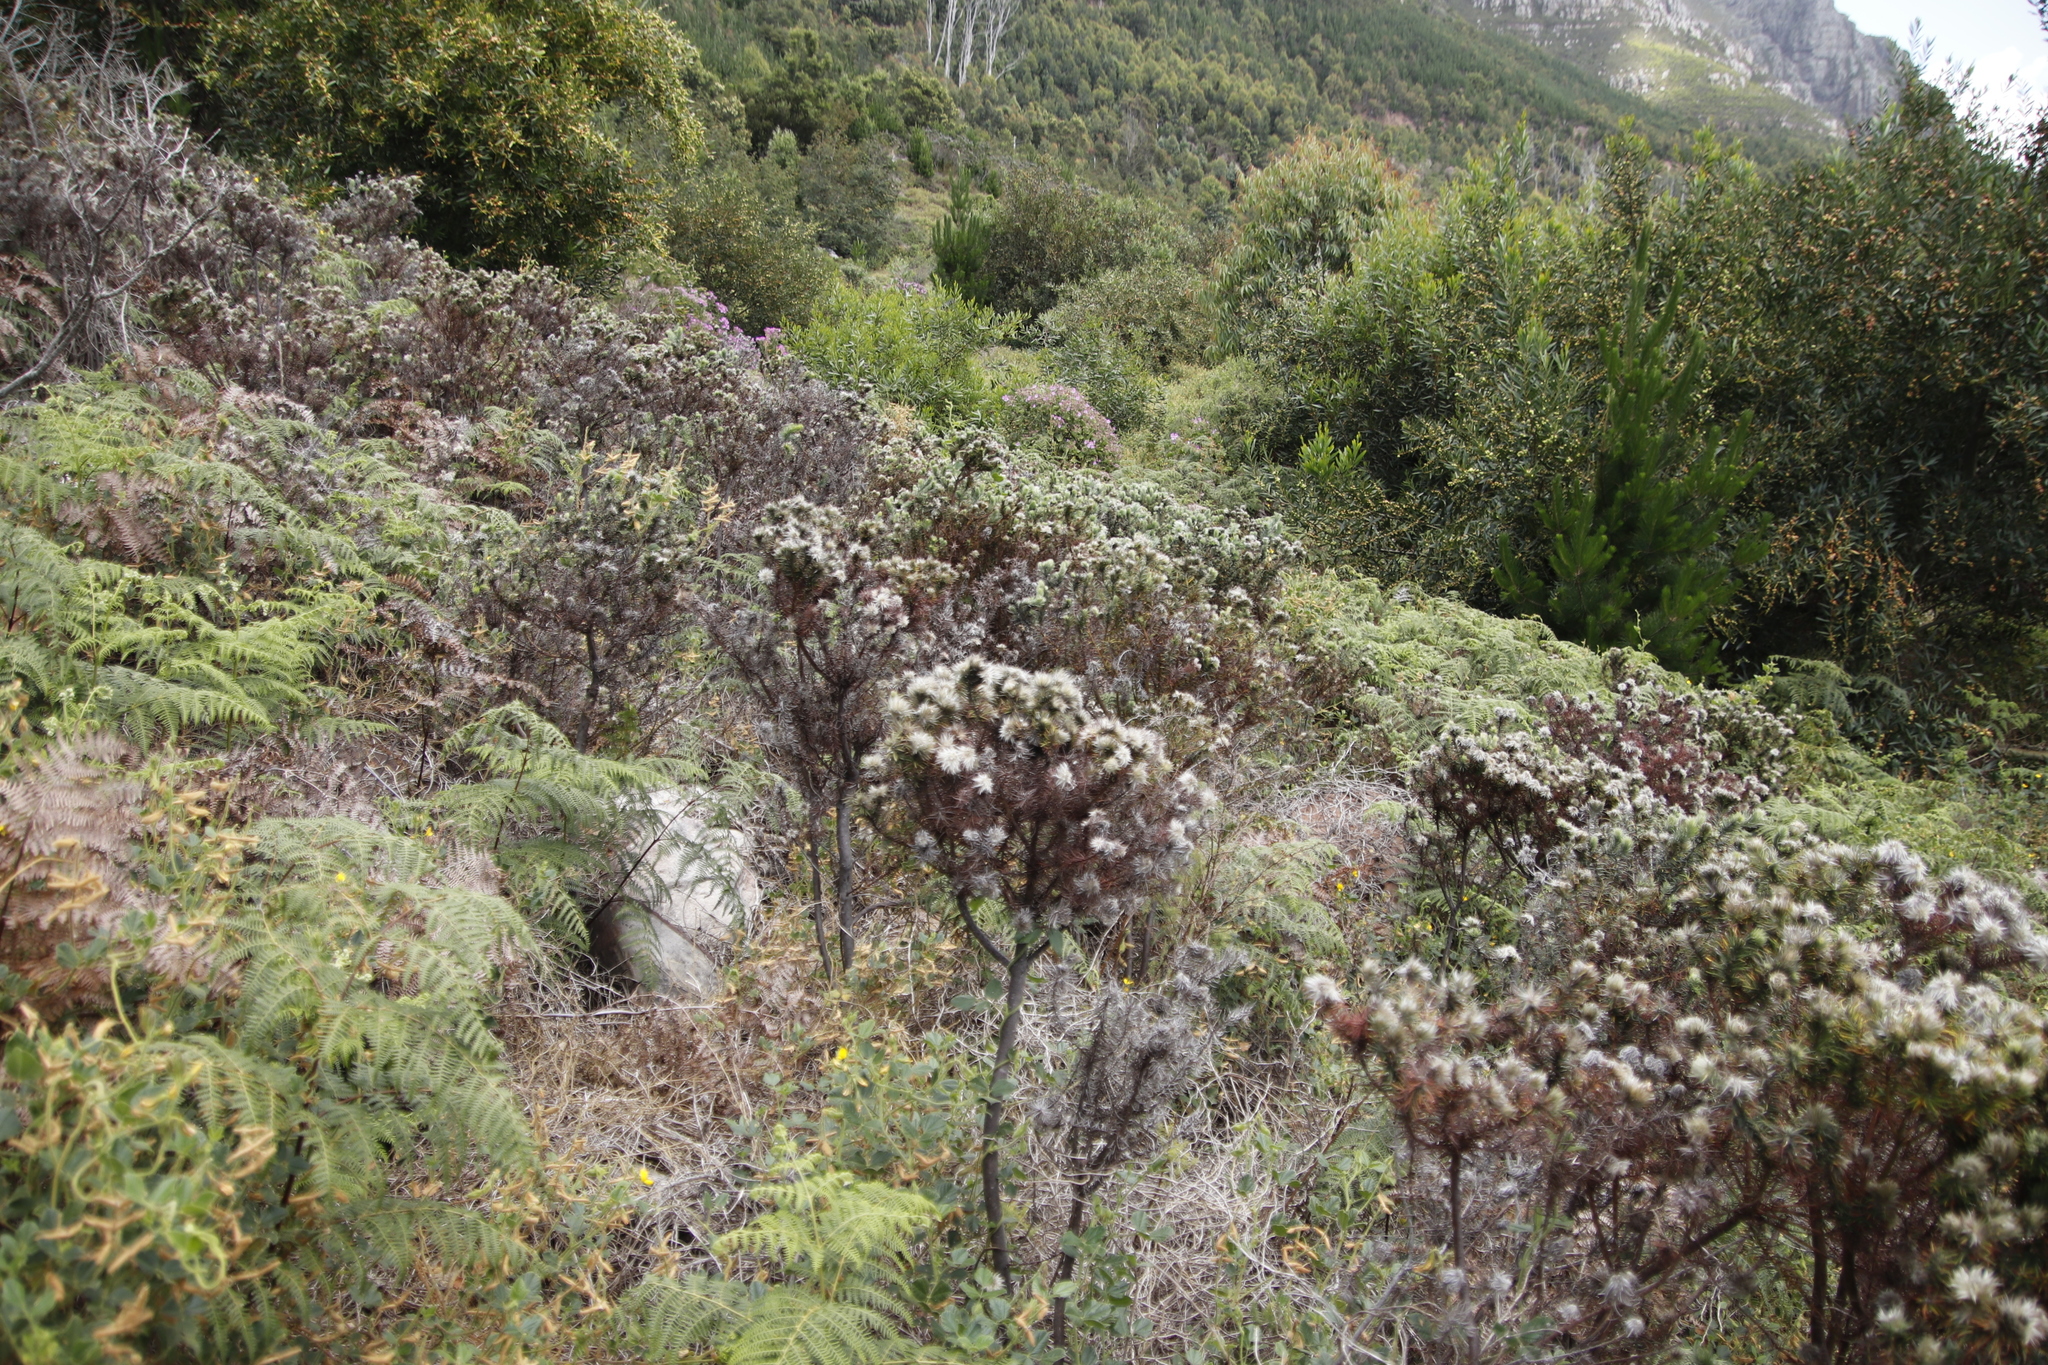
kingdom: Plantae
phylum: Tracheophyta
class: Magnoliopsida
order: Rosales
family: Rhamnaceae
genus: Phylica
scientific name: Phylica pubescens
